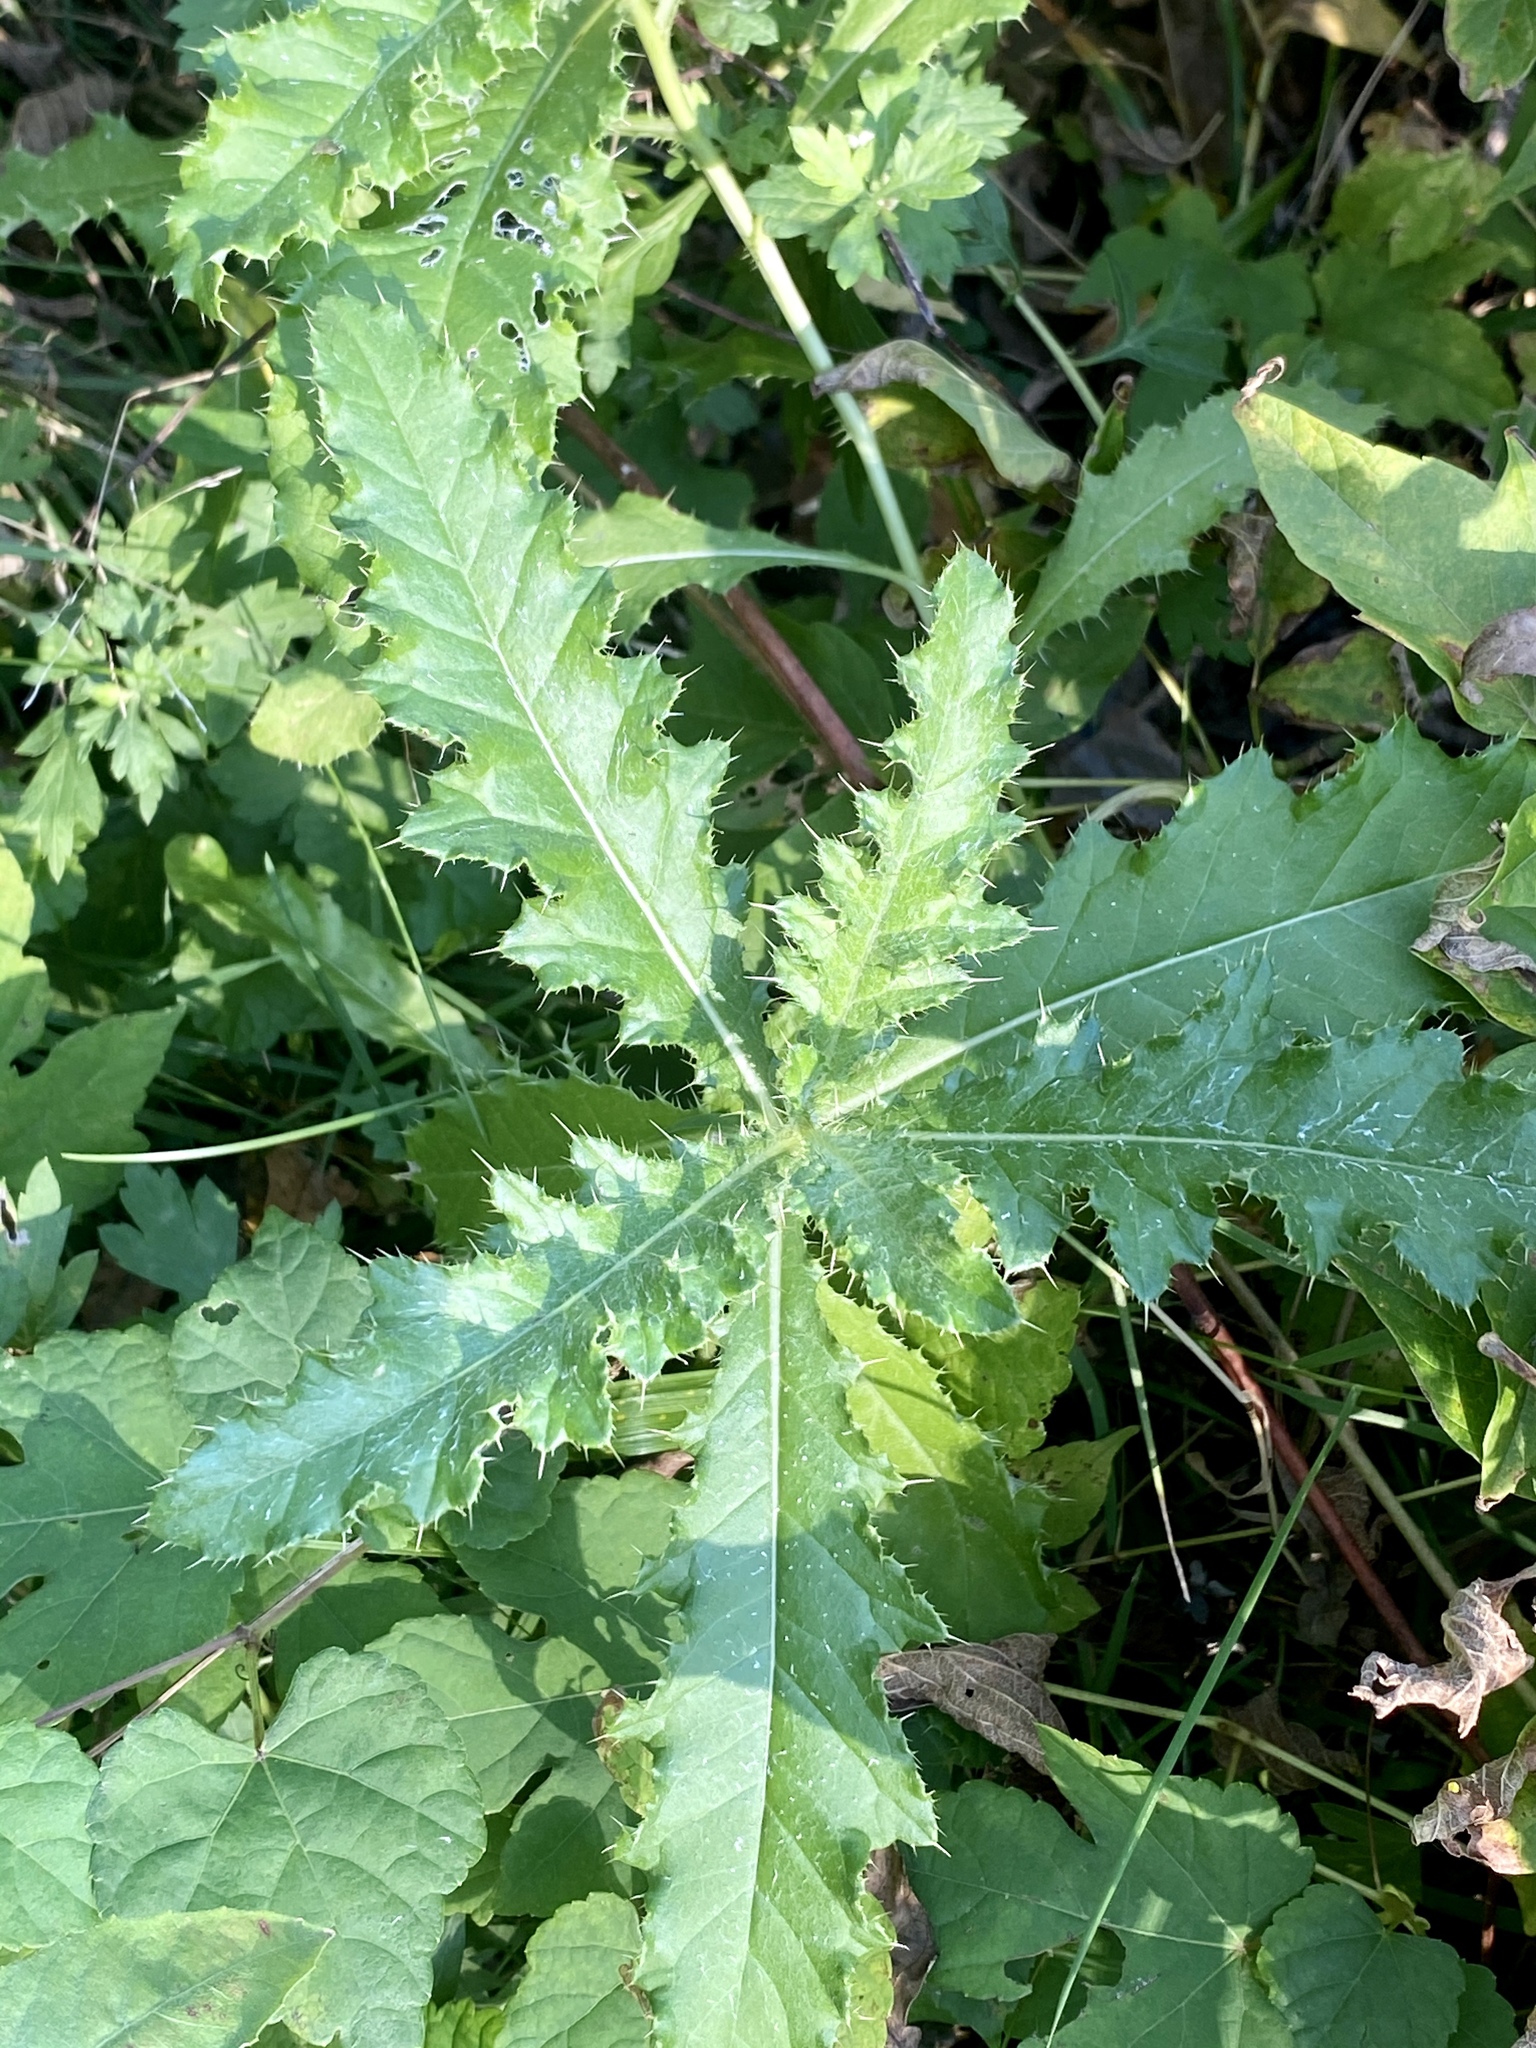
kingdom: Plantae
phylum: Tracheophyta
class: Magnoliopsida
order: Asterales
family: Asteraceae
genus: Cirsium
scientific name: Cirsium arvense
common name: Creeping thistle
